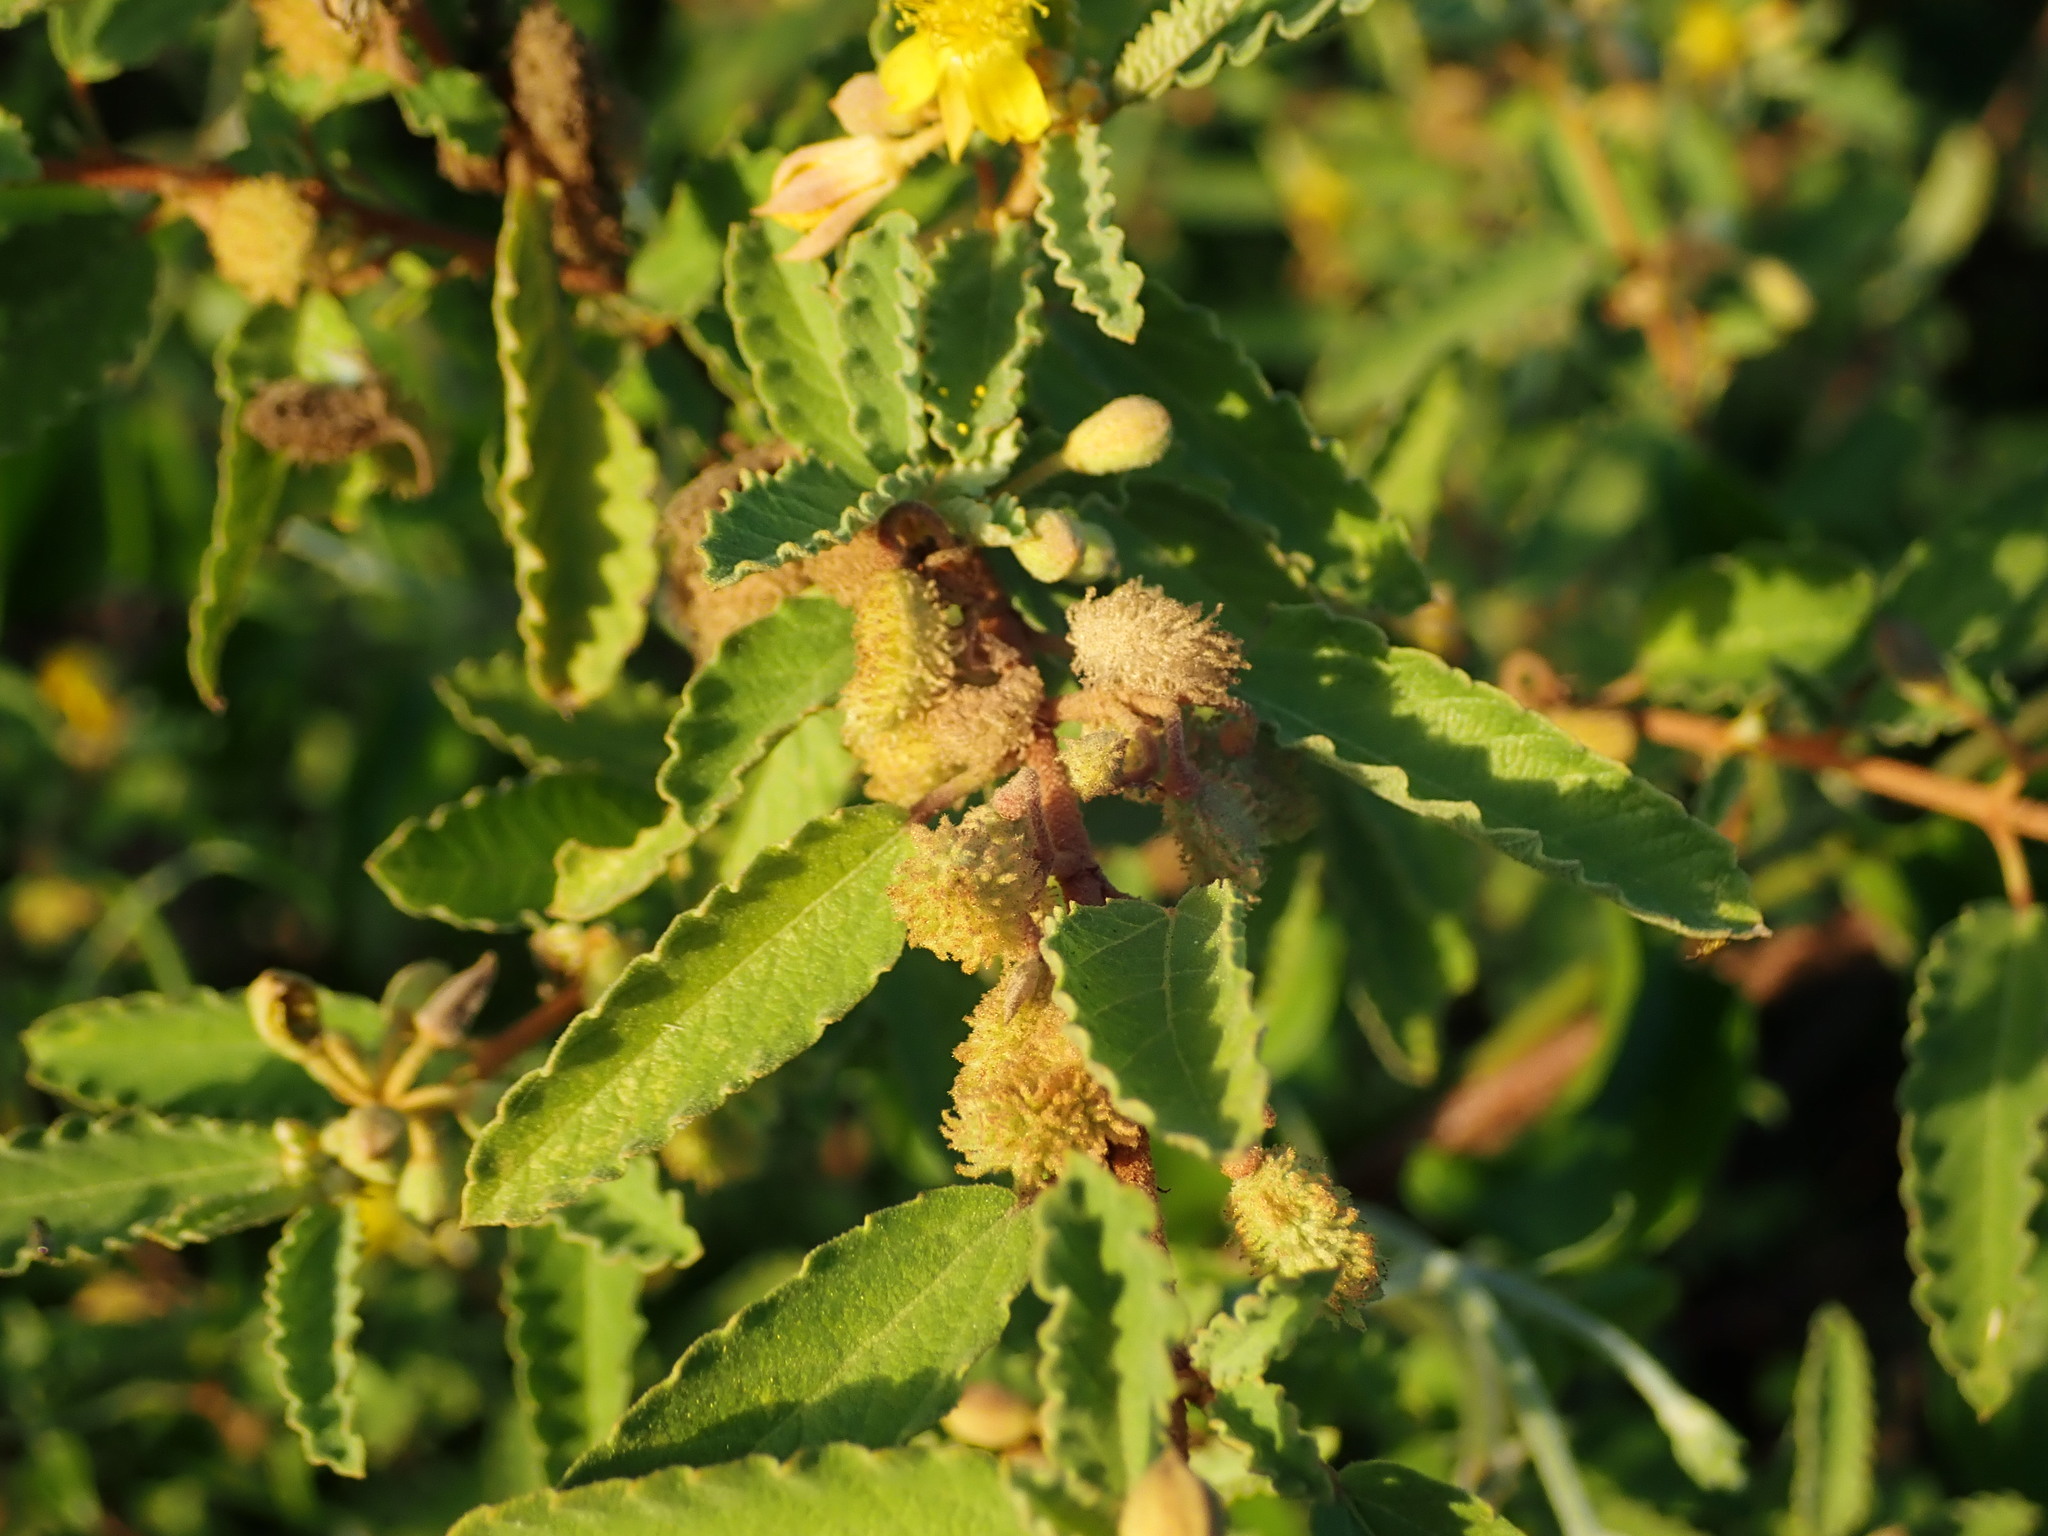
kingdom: Plantae
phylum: Tracheophyta
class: Magnoliopsida
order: Malvales
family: Malvaceae
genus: Corchorus
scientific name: Corchorus hirsutus
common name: Jackswitch
